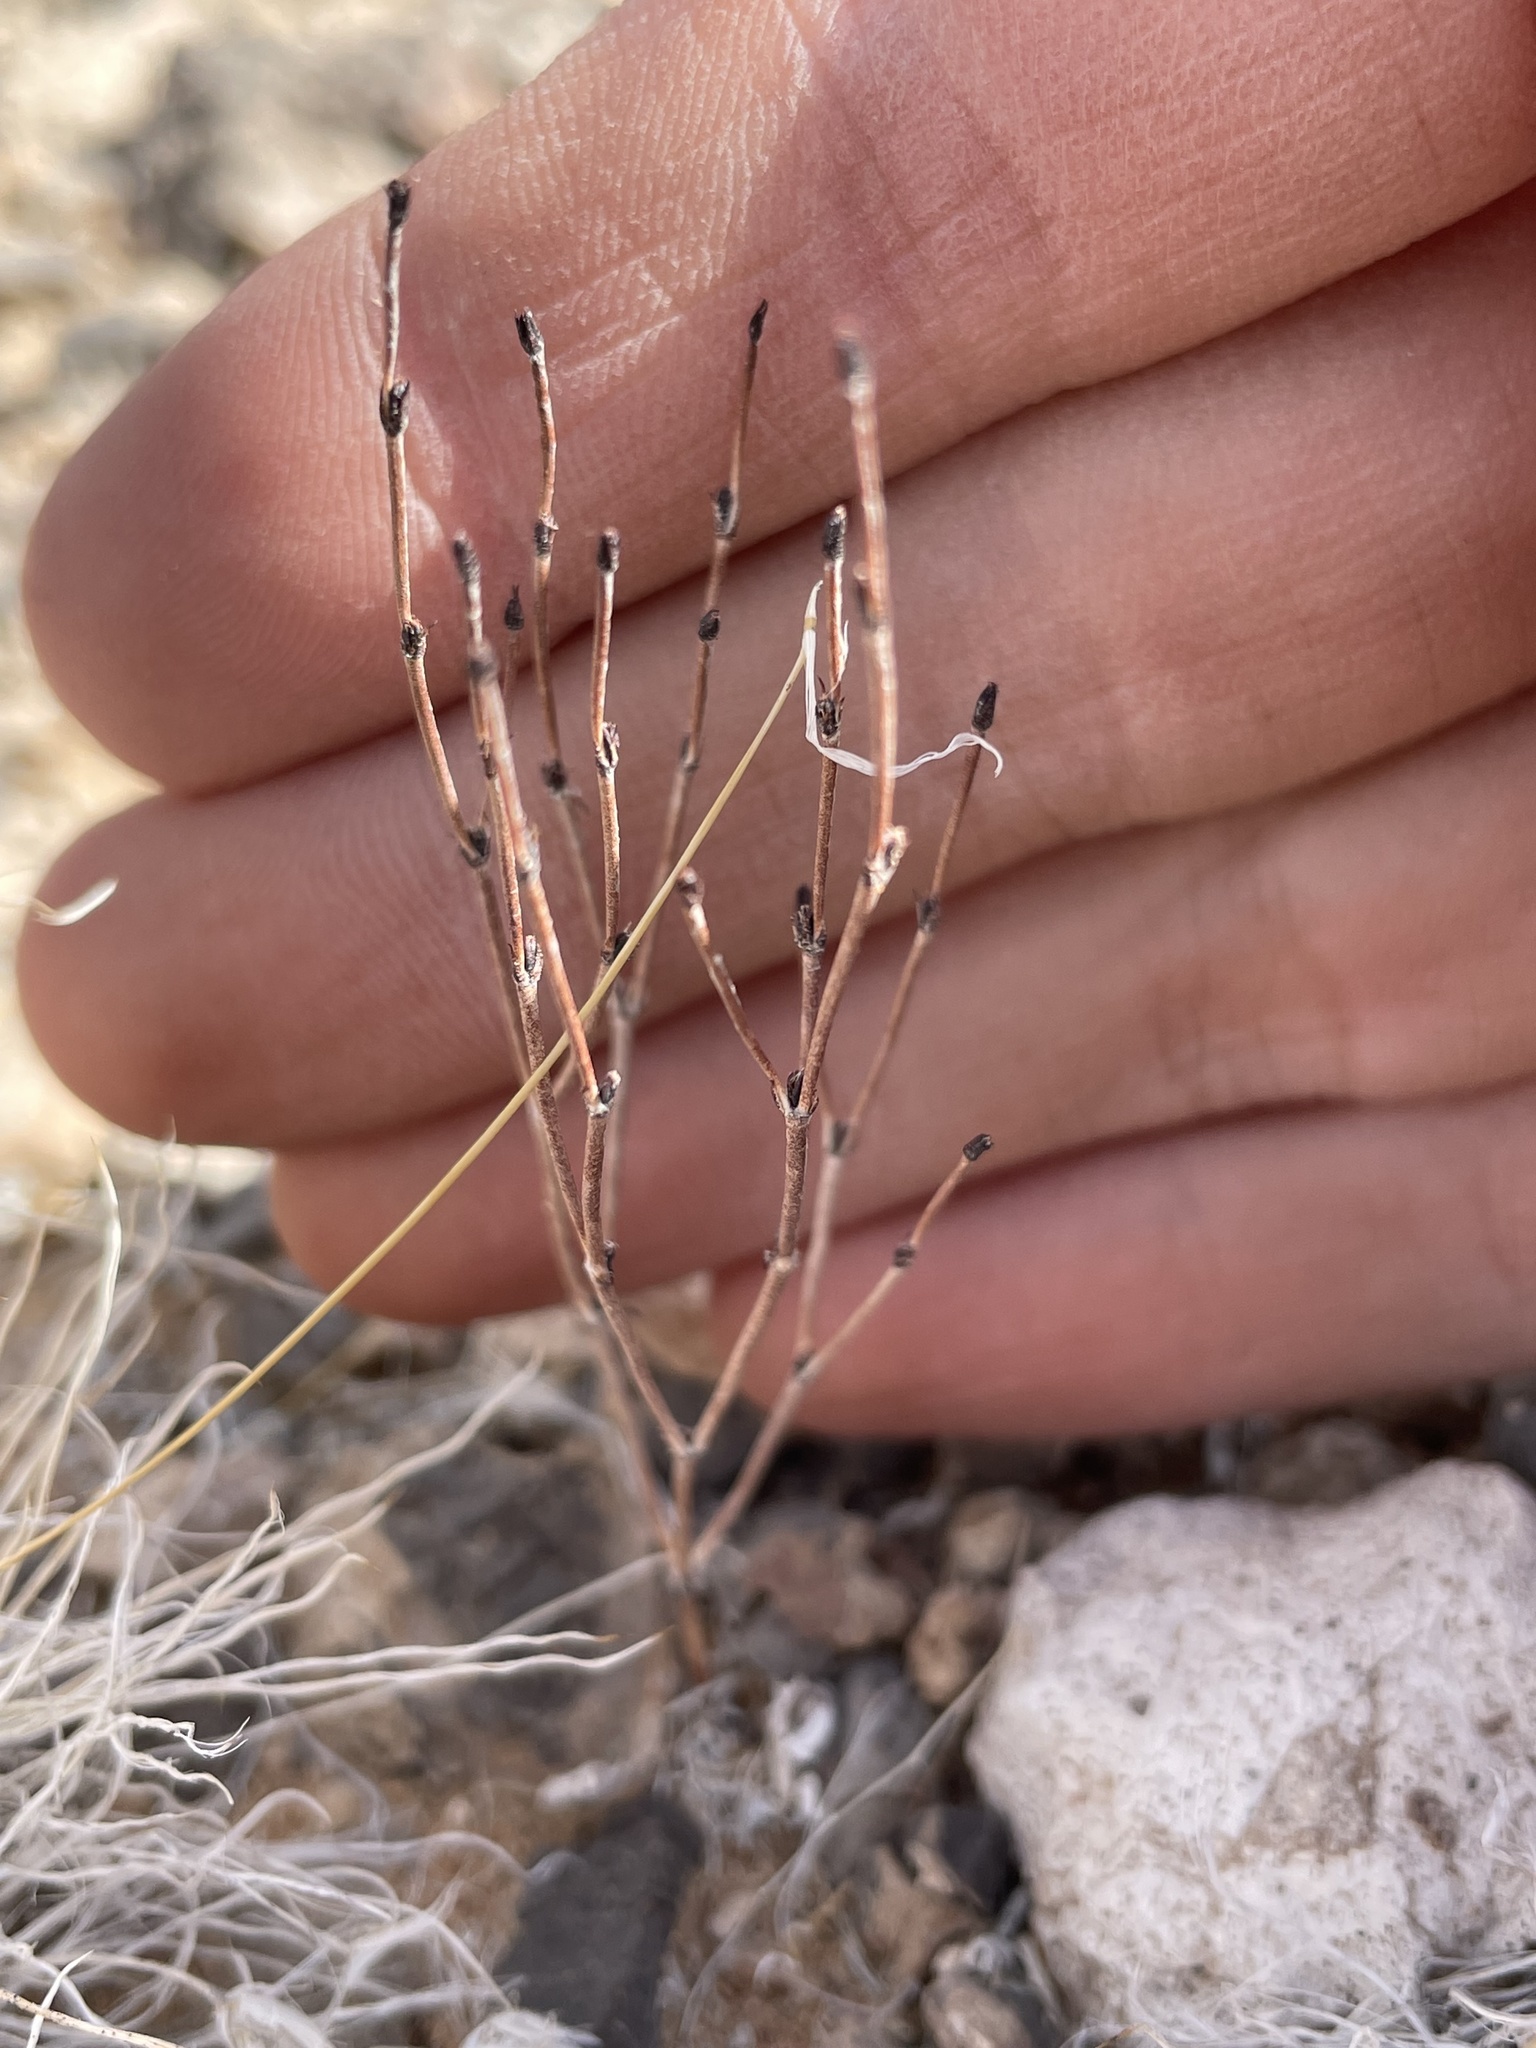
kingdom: Plantae
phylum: Tracheophyta
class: Magnoliopsida
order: Caryophyllales
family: Polygonaceae
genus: Eriogonum
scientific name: Eriogonum nidularium
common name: Bird's-nest wild buckwheat
